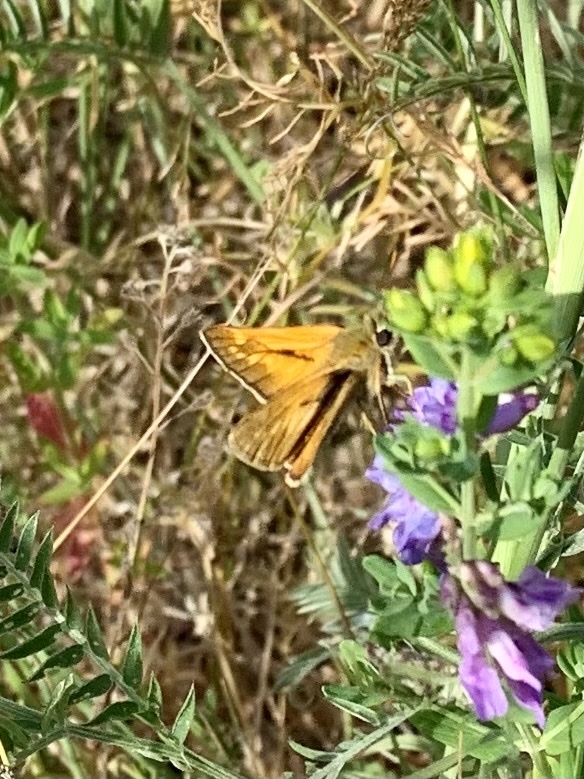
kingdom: Animalia
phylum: Arthropoda
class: Insecta
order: Lepidoptera
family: Hesperiidae
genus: Ochlodes
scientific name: Ochlodes venata
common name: Large skipper
